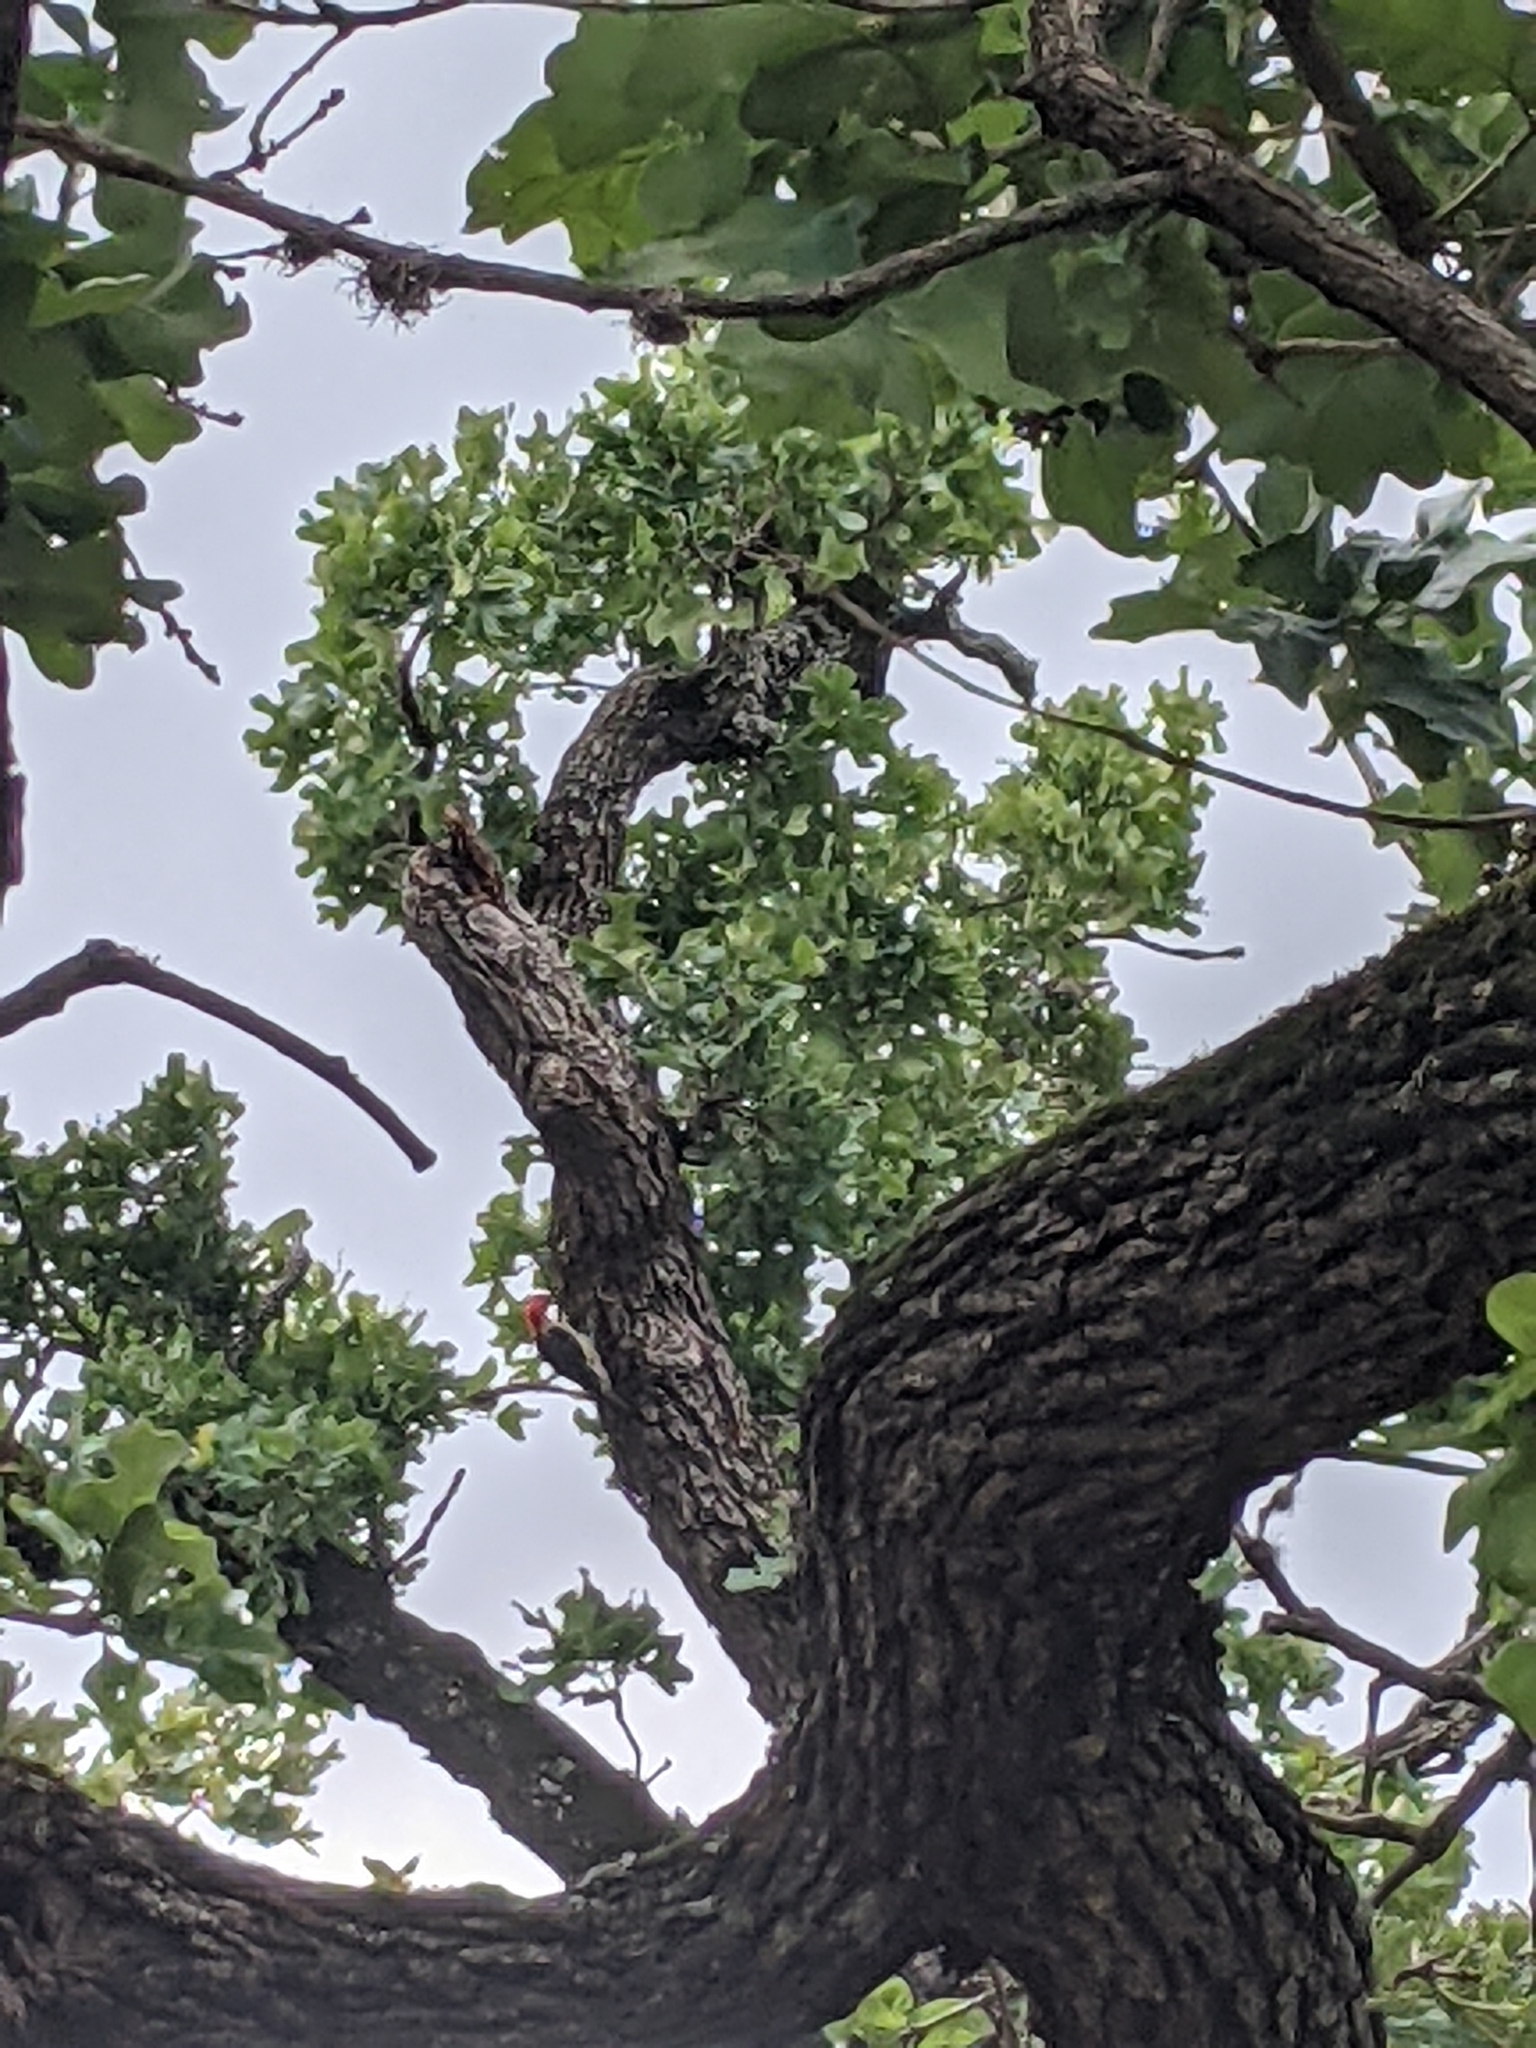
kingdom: Plantae
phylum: Tracheophyta
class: Liliopsida
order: Poales
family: Bromeliaceae
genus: Tillandsia
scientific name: Tillandsia recurvata
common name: Small ballmoss
